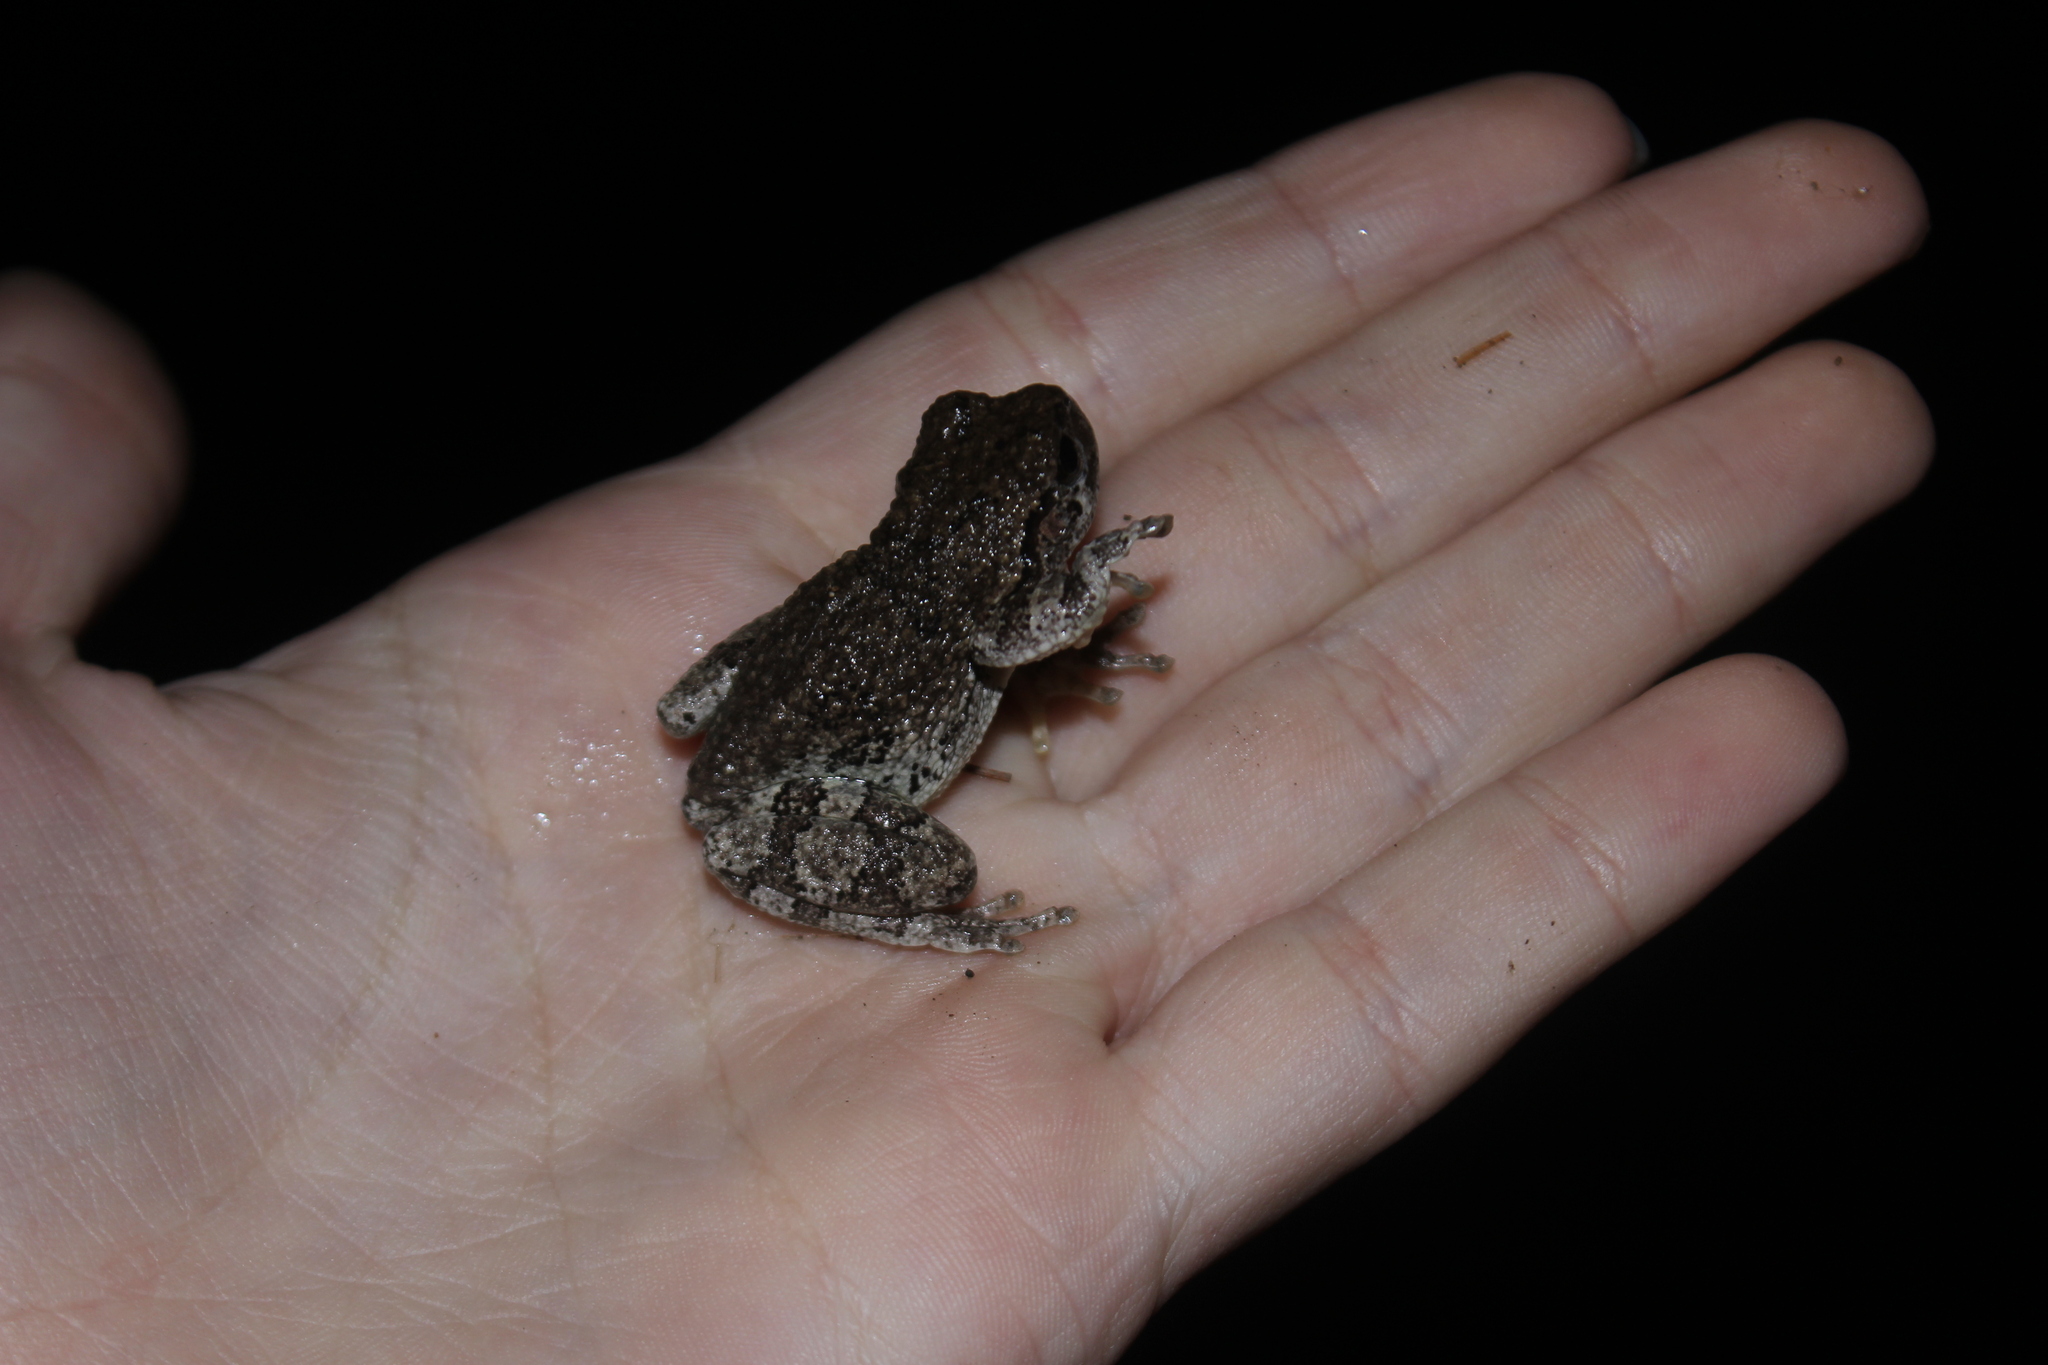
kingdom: Animalia
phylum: Chordata
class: Amphibia
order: Anura
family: Hylidae
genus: Dryophytes
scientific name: Dryophytes versicolor
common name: Gray treefrog
